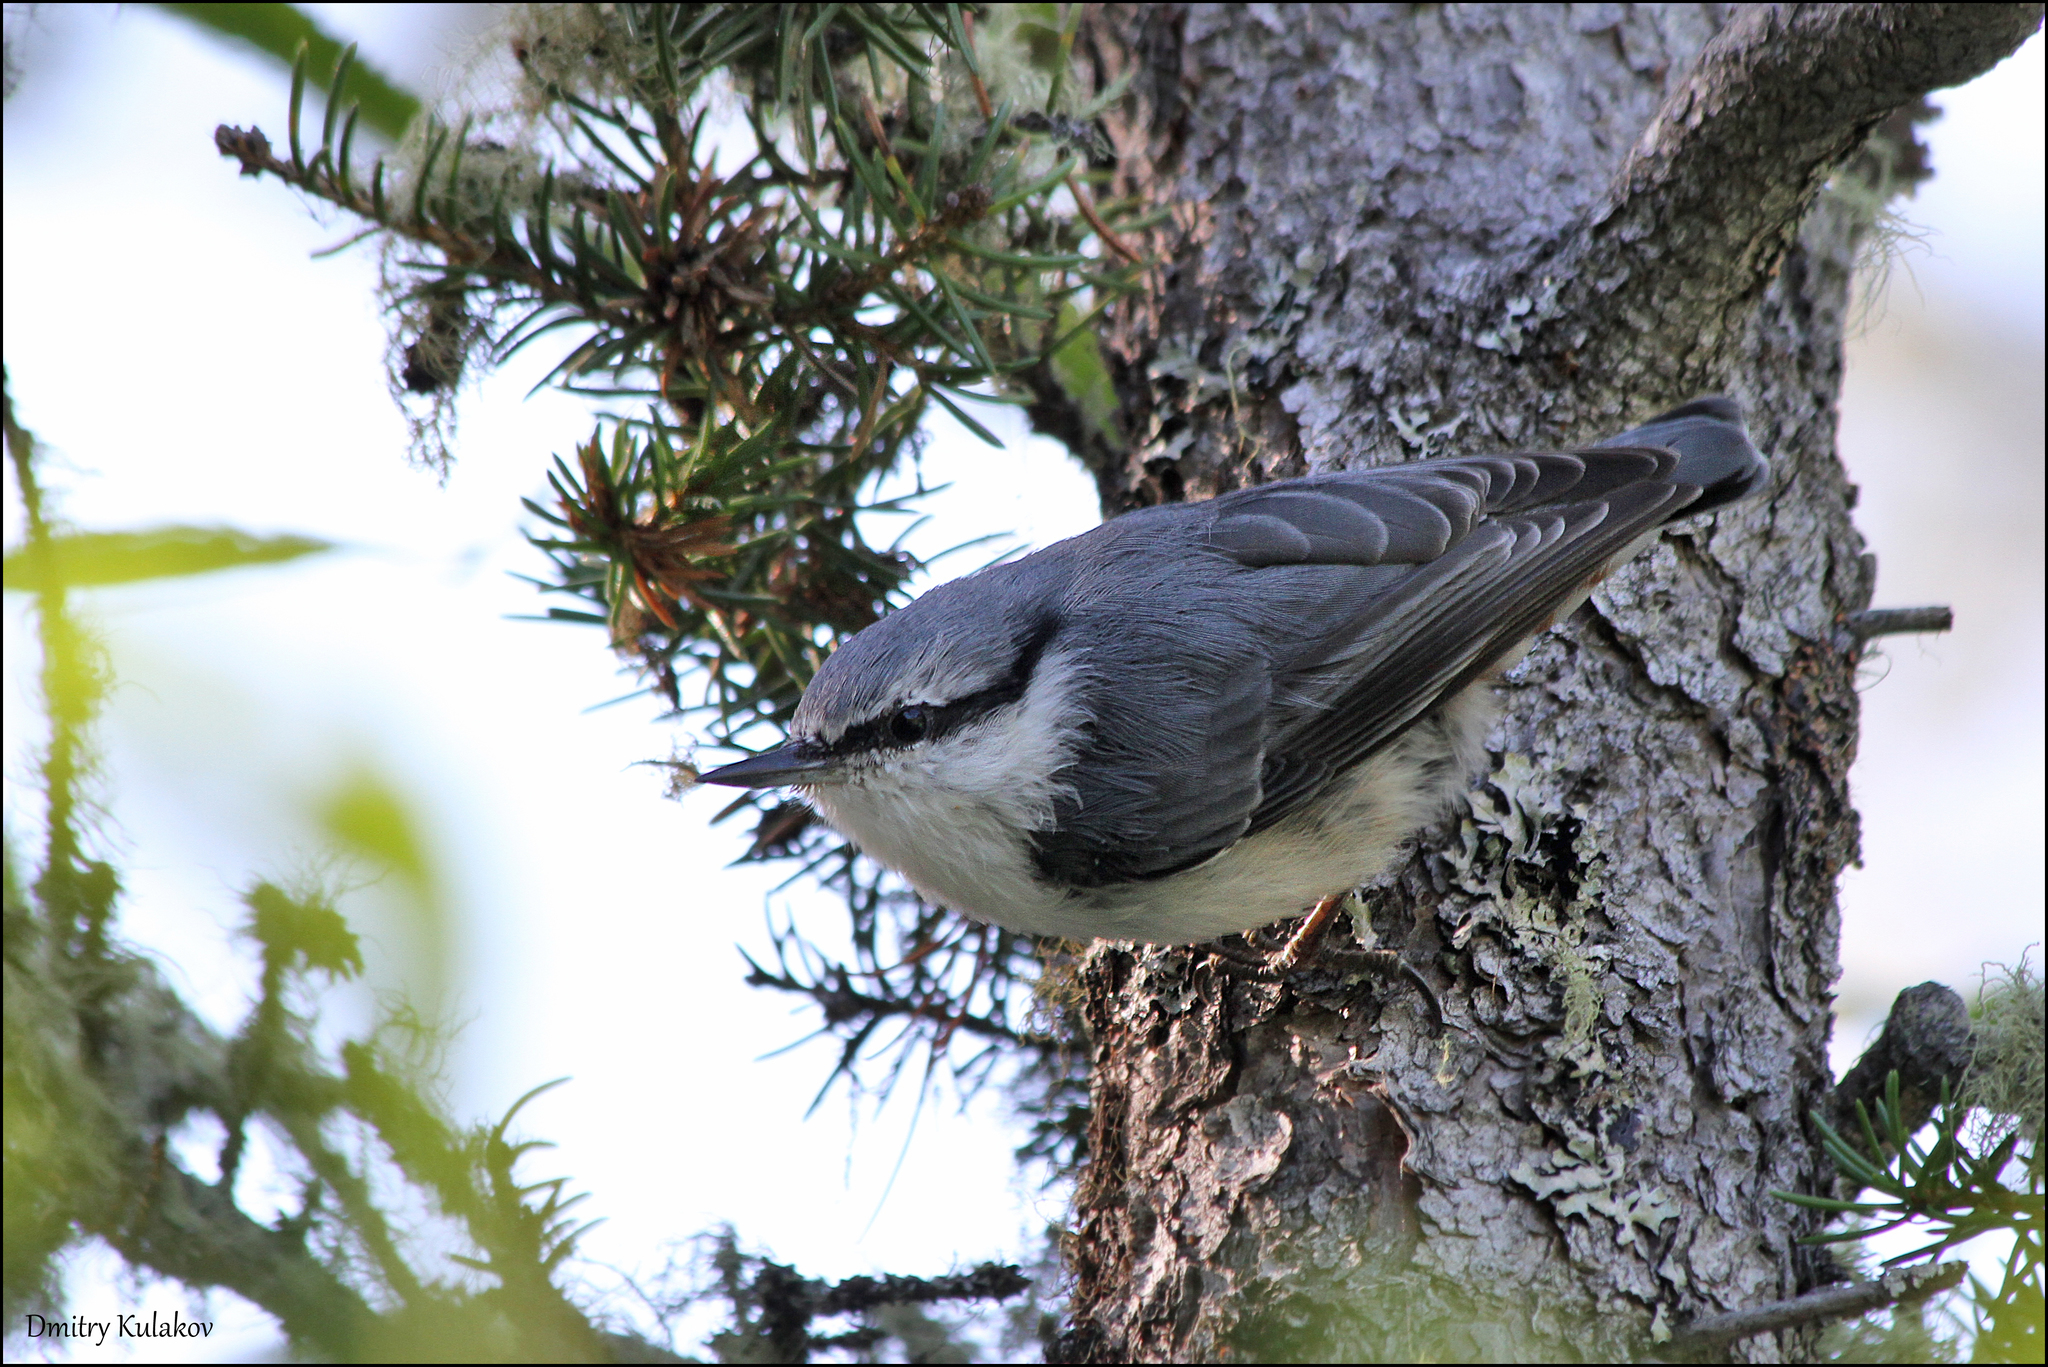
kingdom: Animalia
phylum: Chordata
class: Aves
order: Passeriformes
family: Sittidae
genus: Sitta
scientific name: Sitta europaea
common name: Eurasian nuthatch
